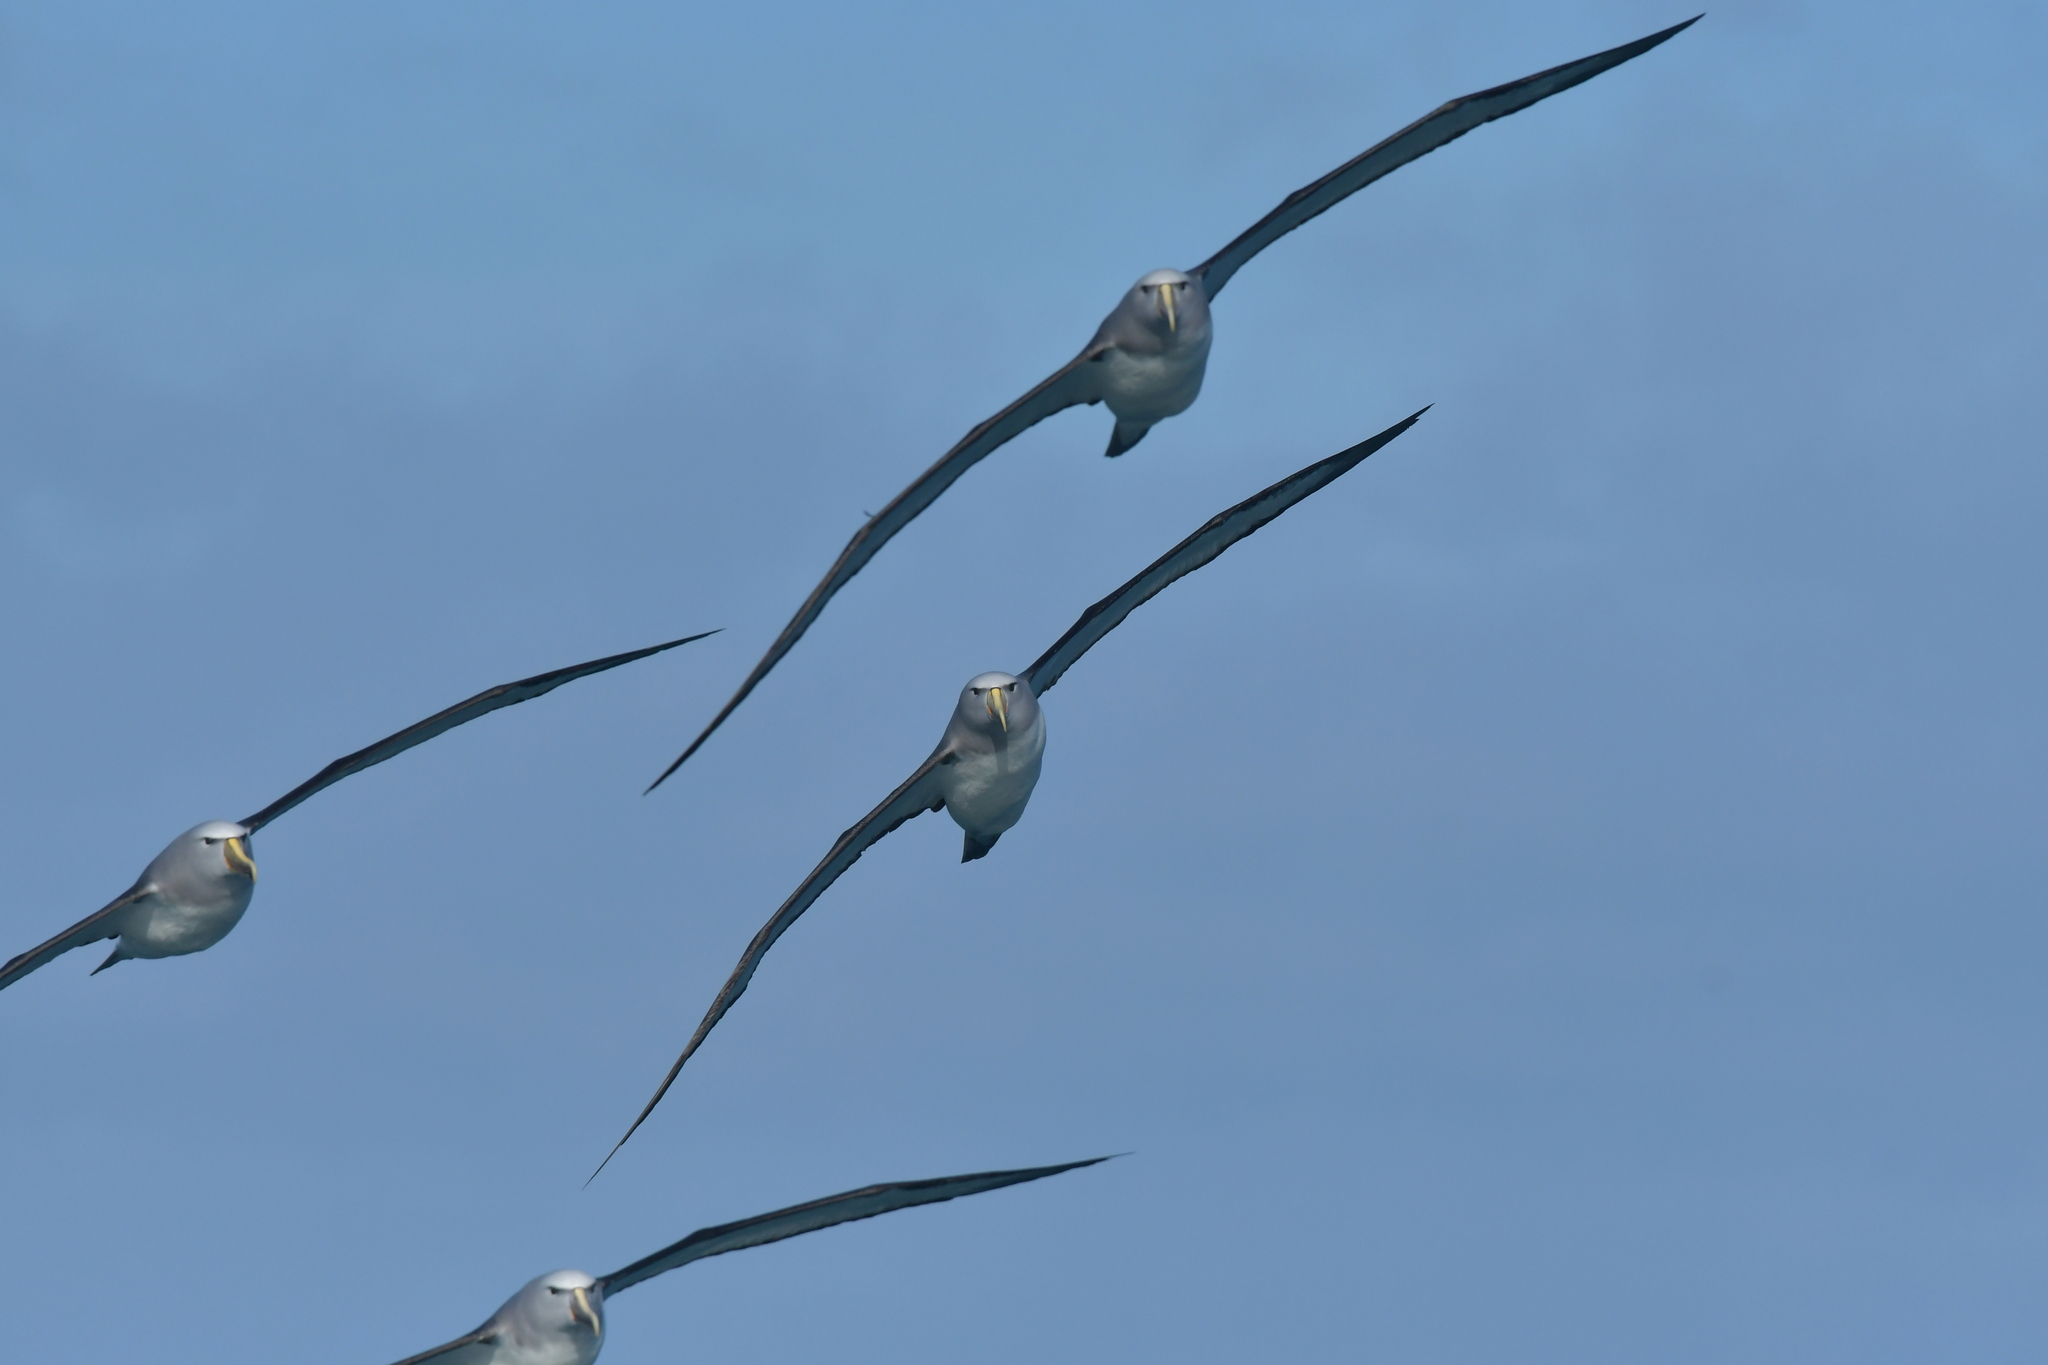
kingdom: Animalia
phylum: Chordata
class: Aves
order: Procellariiformes
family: Diomedeidae
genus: Thalassarche
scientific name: Thalassarche salvini
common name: Salvin's albatross
